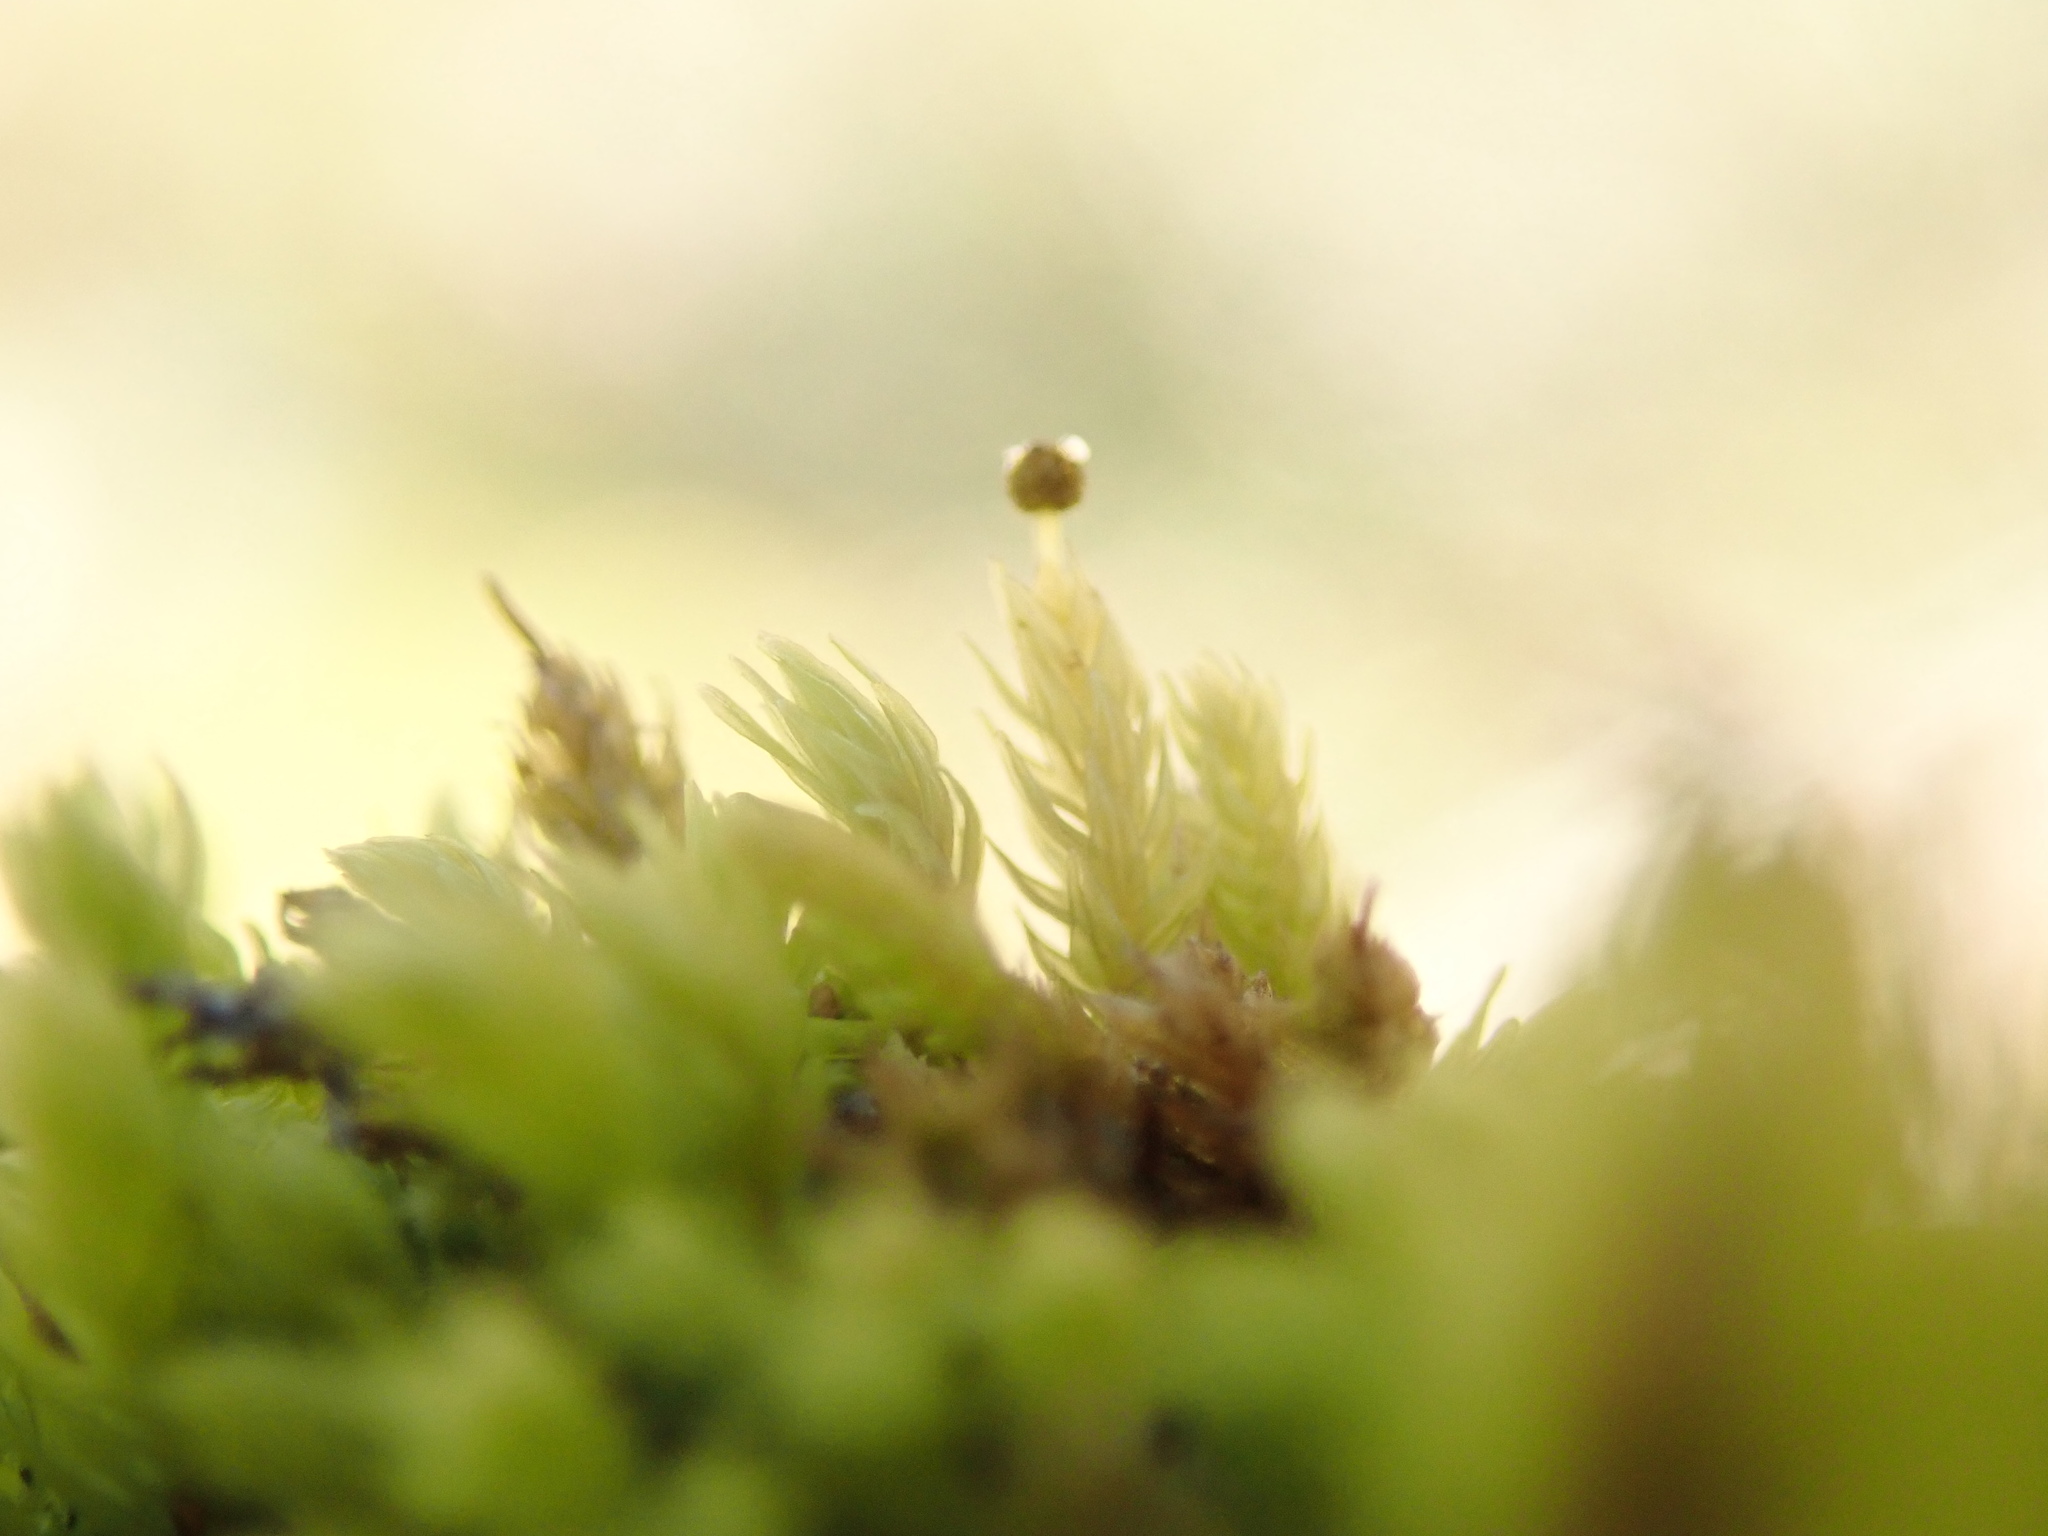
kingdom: Plantae
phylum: Bryophyta
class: Bryopsida
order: Aulacomniales
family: Aulacomniaceae
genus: Aulacomnium
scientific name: Aulacomnium androgynum
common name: Little groove moss
